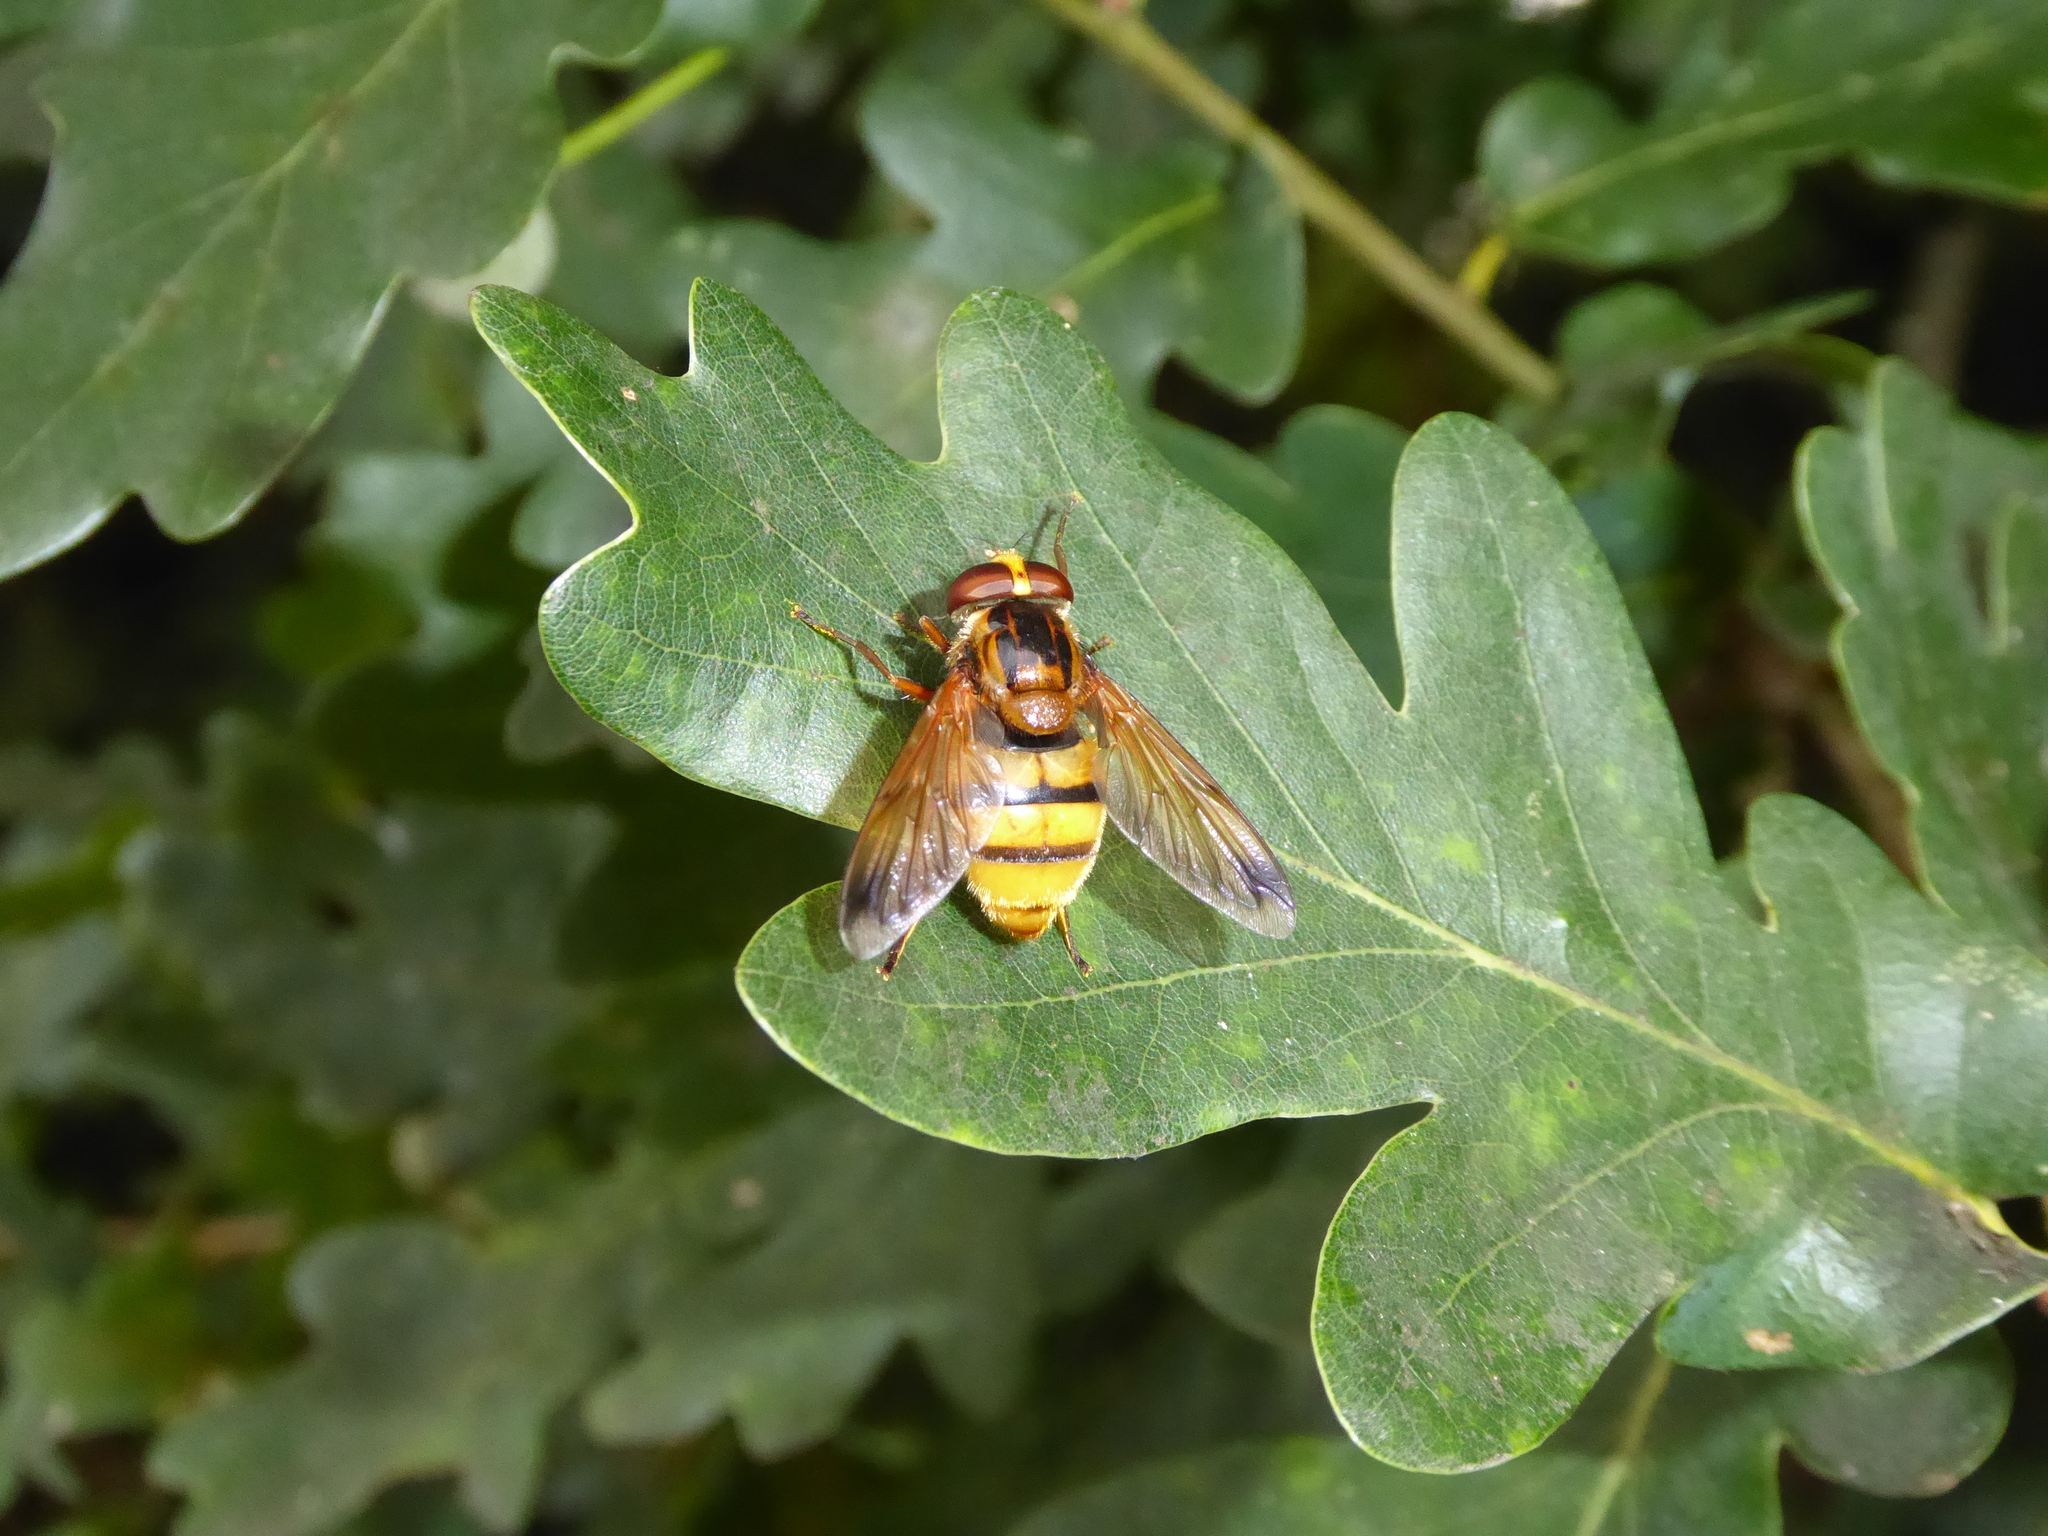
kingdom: Animalia
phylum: Arthropoda
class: Insecta
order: Diptera
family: Syrphidae
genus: Volucella
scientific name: Volucella inanis
